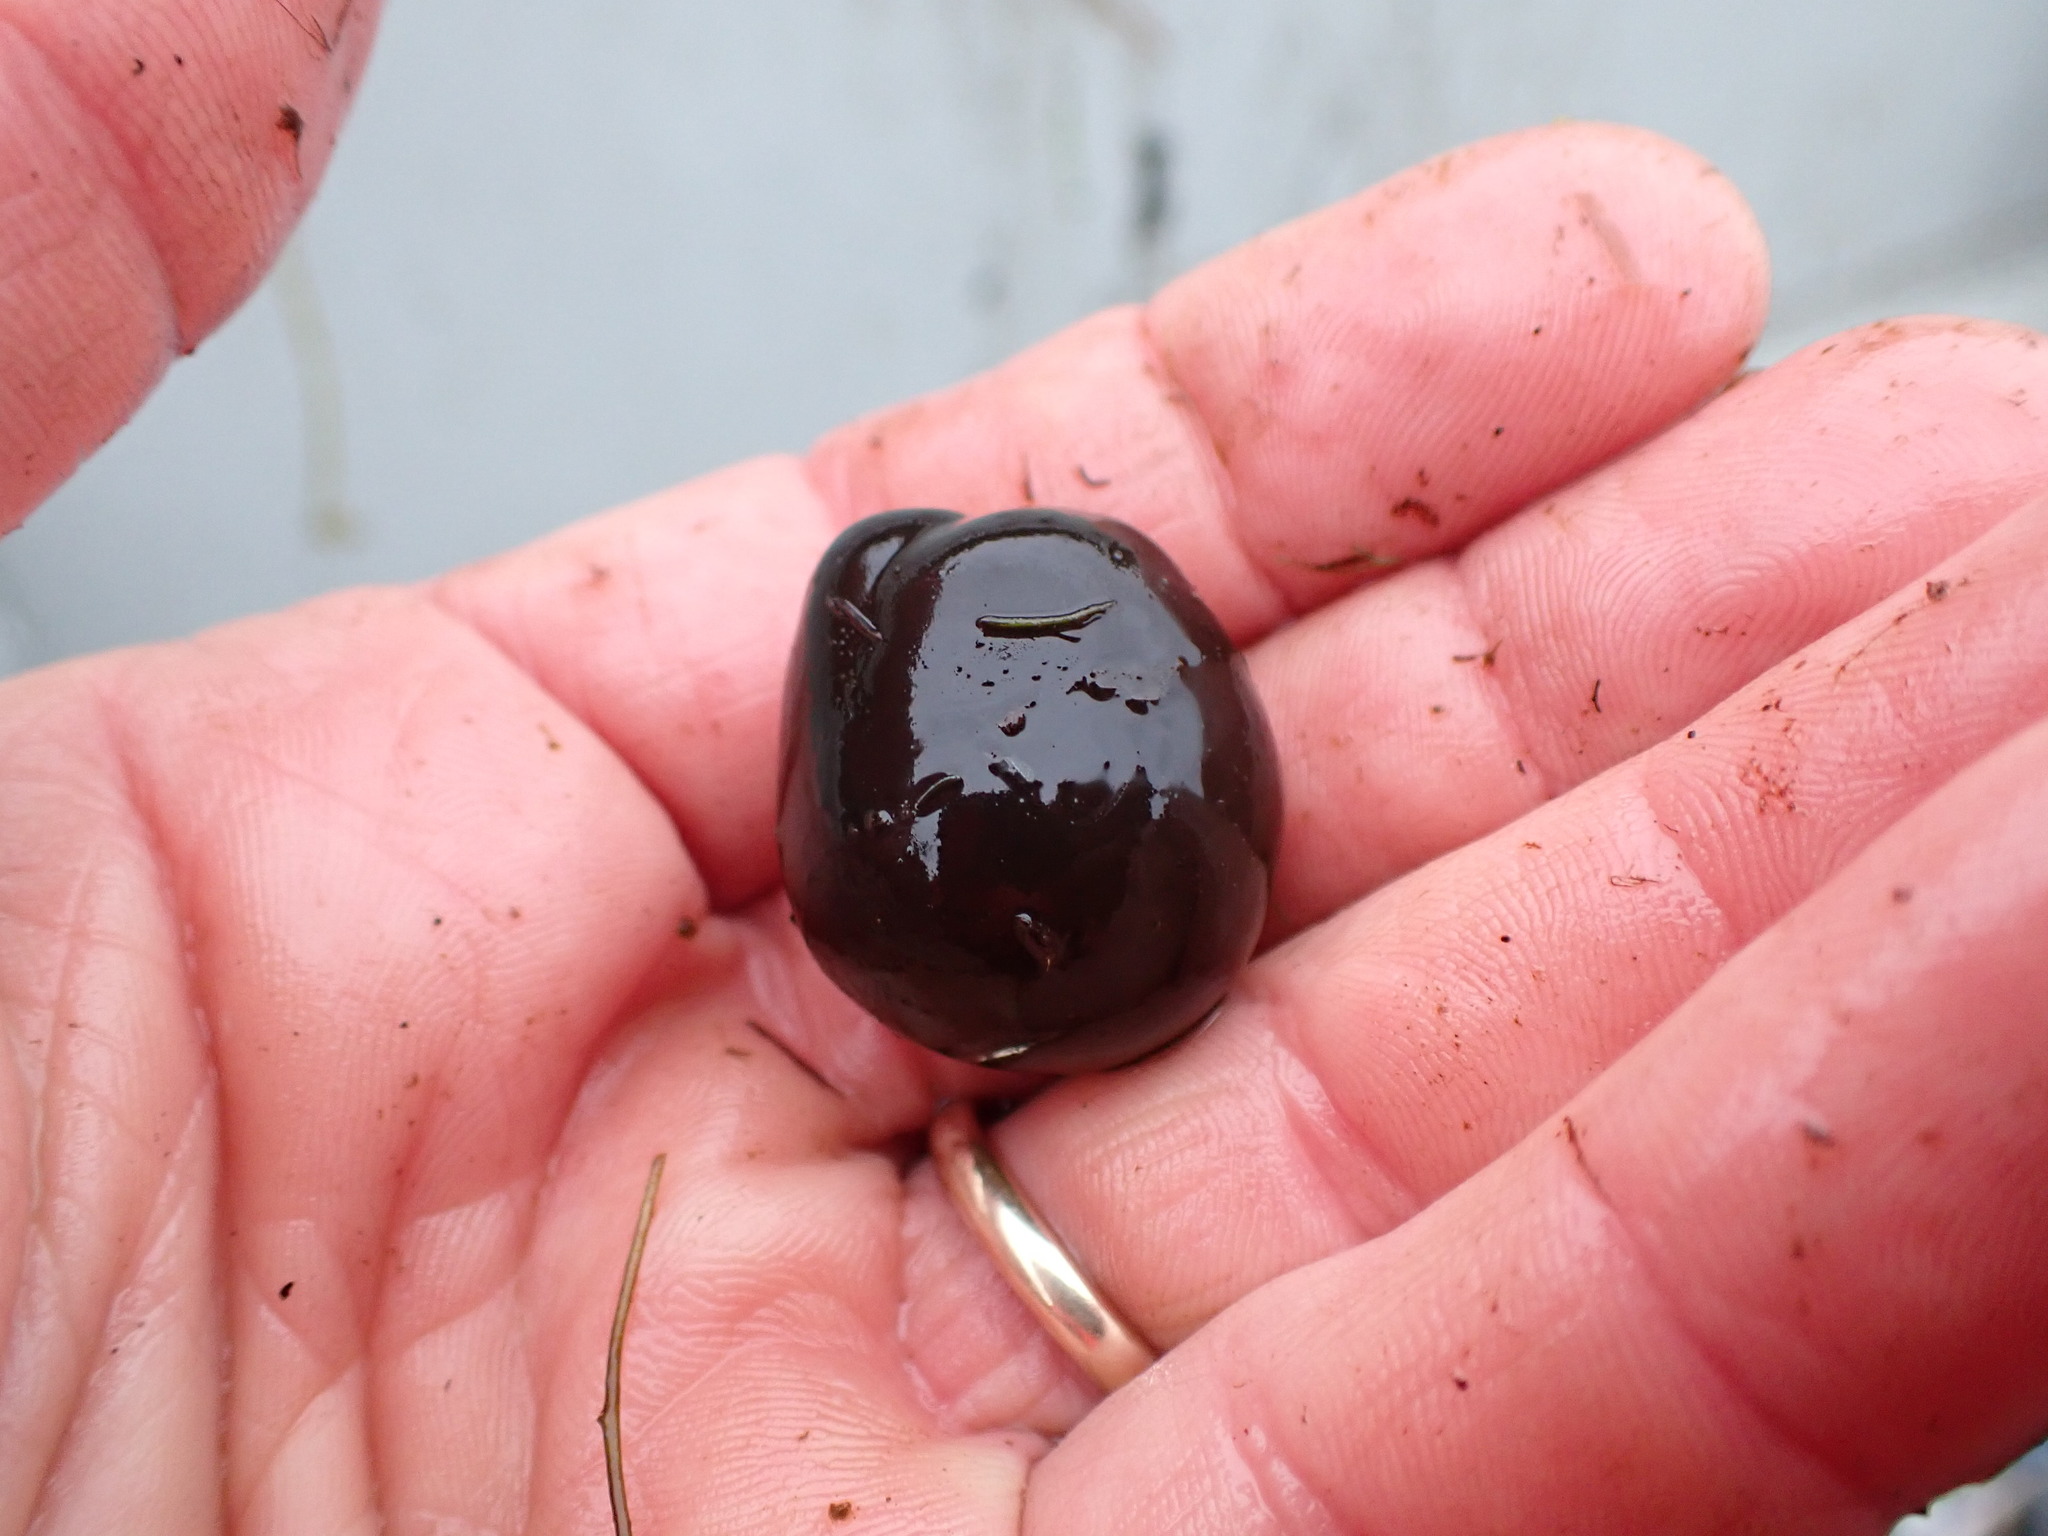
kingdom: Bacteria
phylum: Cyanobacteria
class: Cyanobacteriia
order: Cyanobacteriales
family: Nostocaceae
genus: Nostoc
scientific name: Nostoc pruniforme
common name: Mare's eggs
